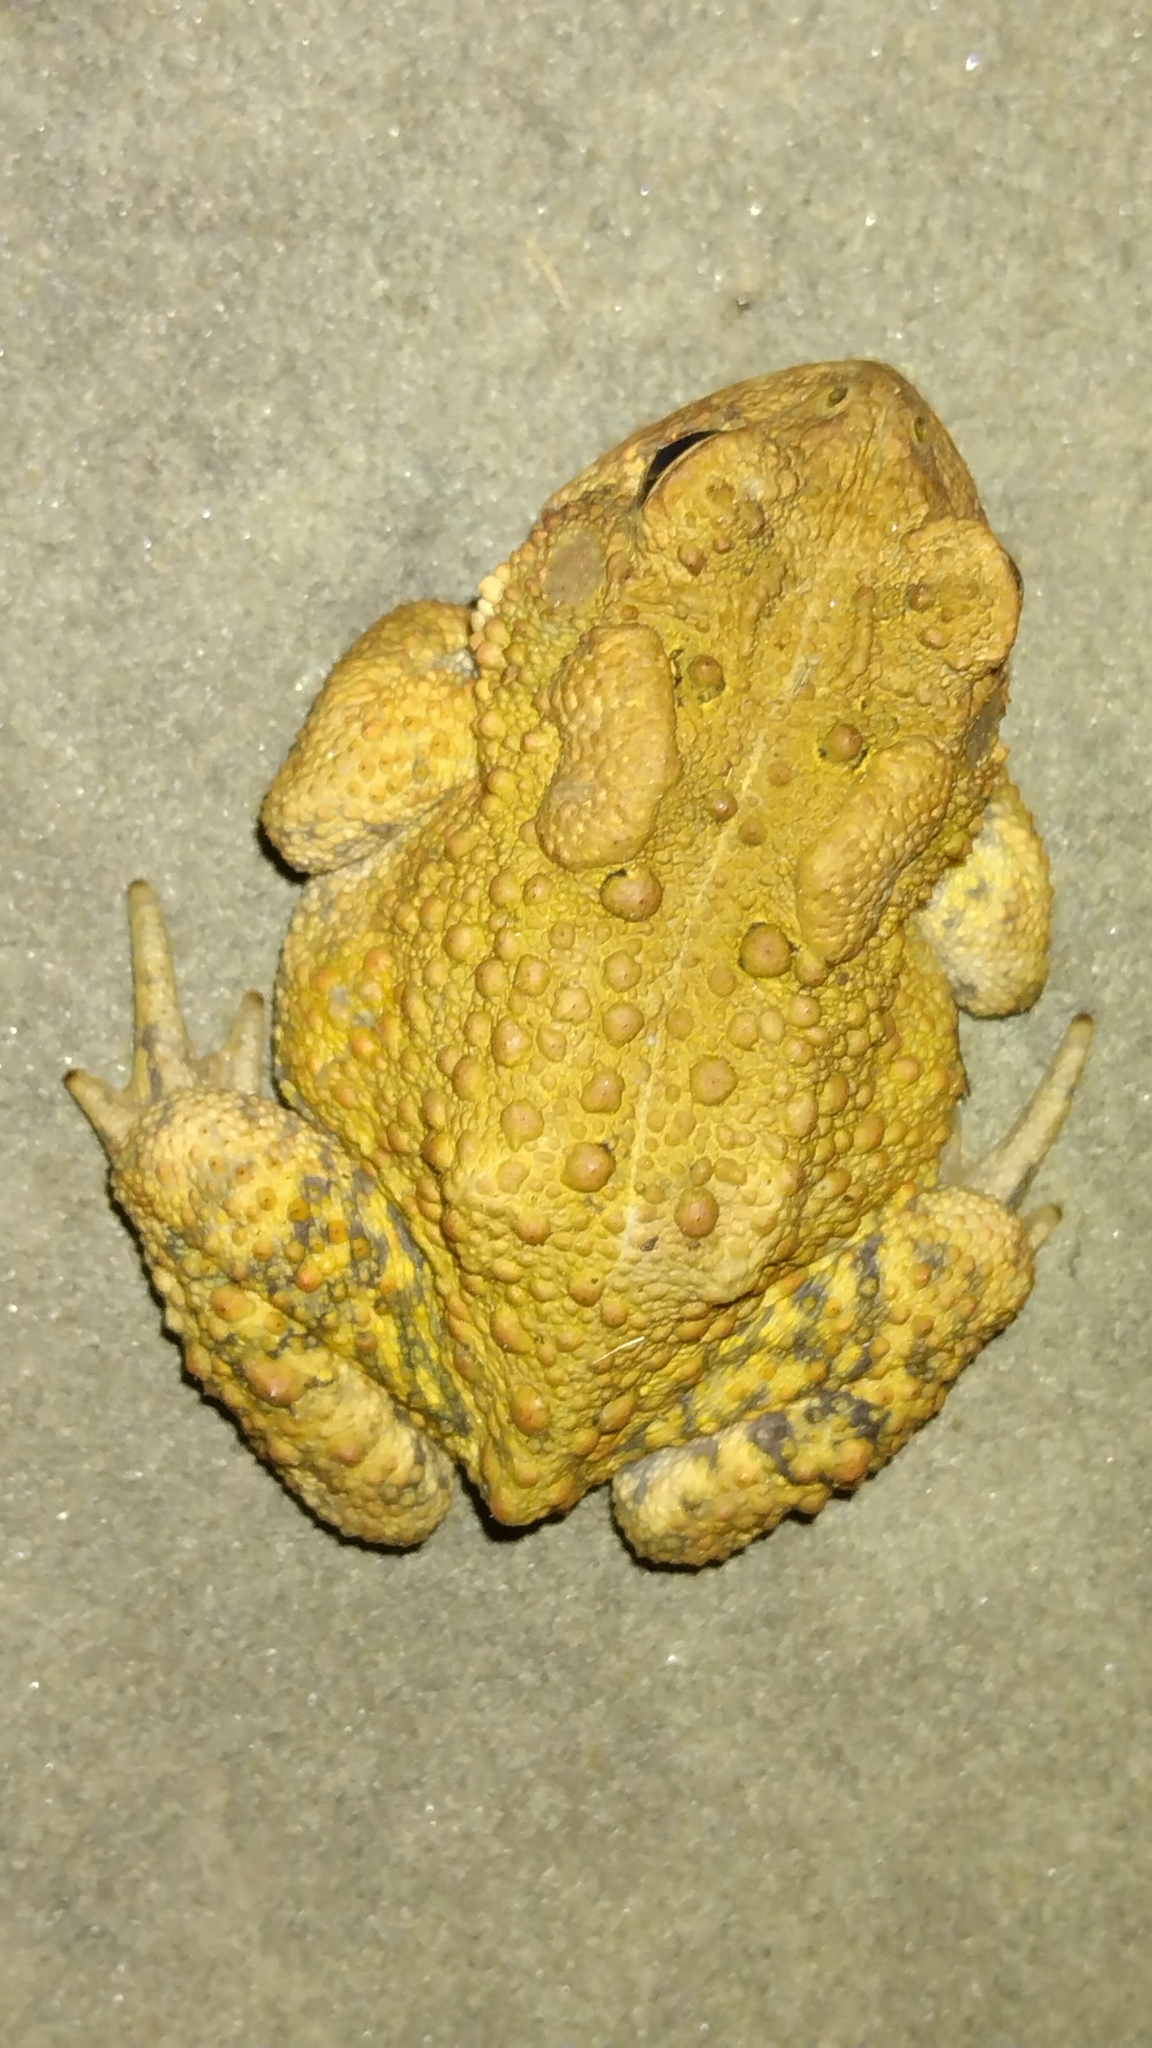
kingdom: Animalia
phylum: Chordata
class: Amphibia
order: Anura
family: Bufonidae
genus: Anaxyrus
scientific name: Anaxyrus americanus
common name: American toad
